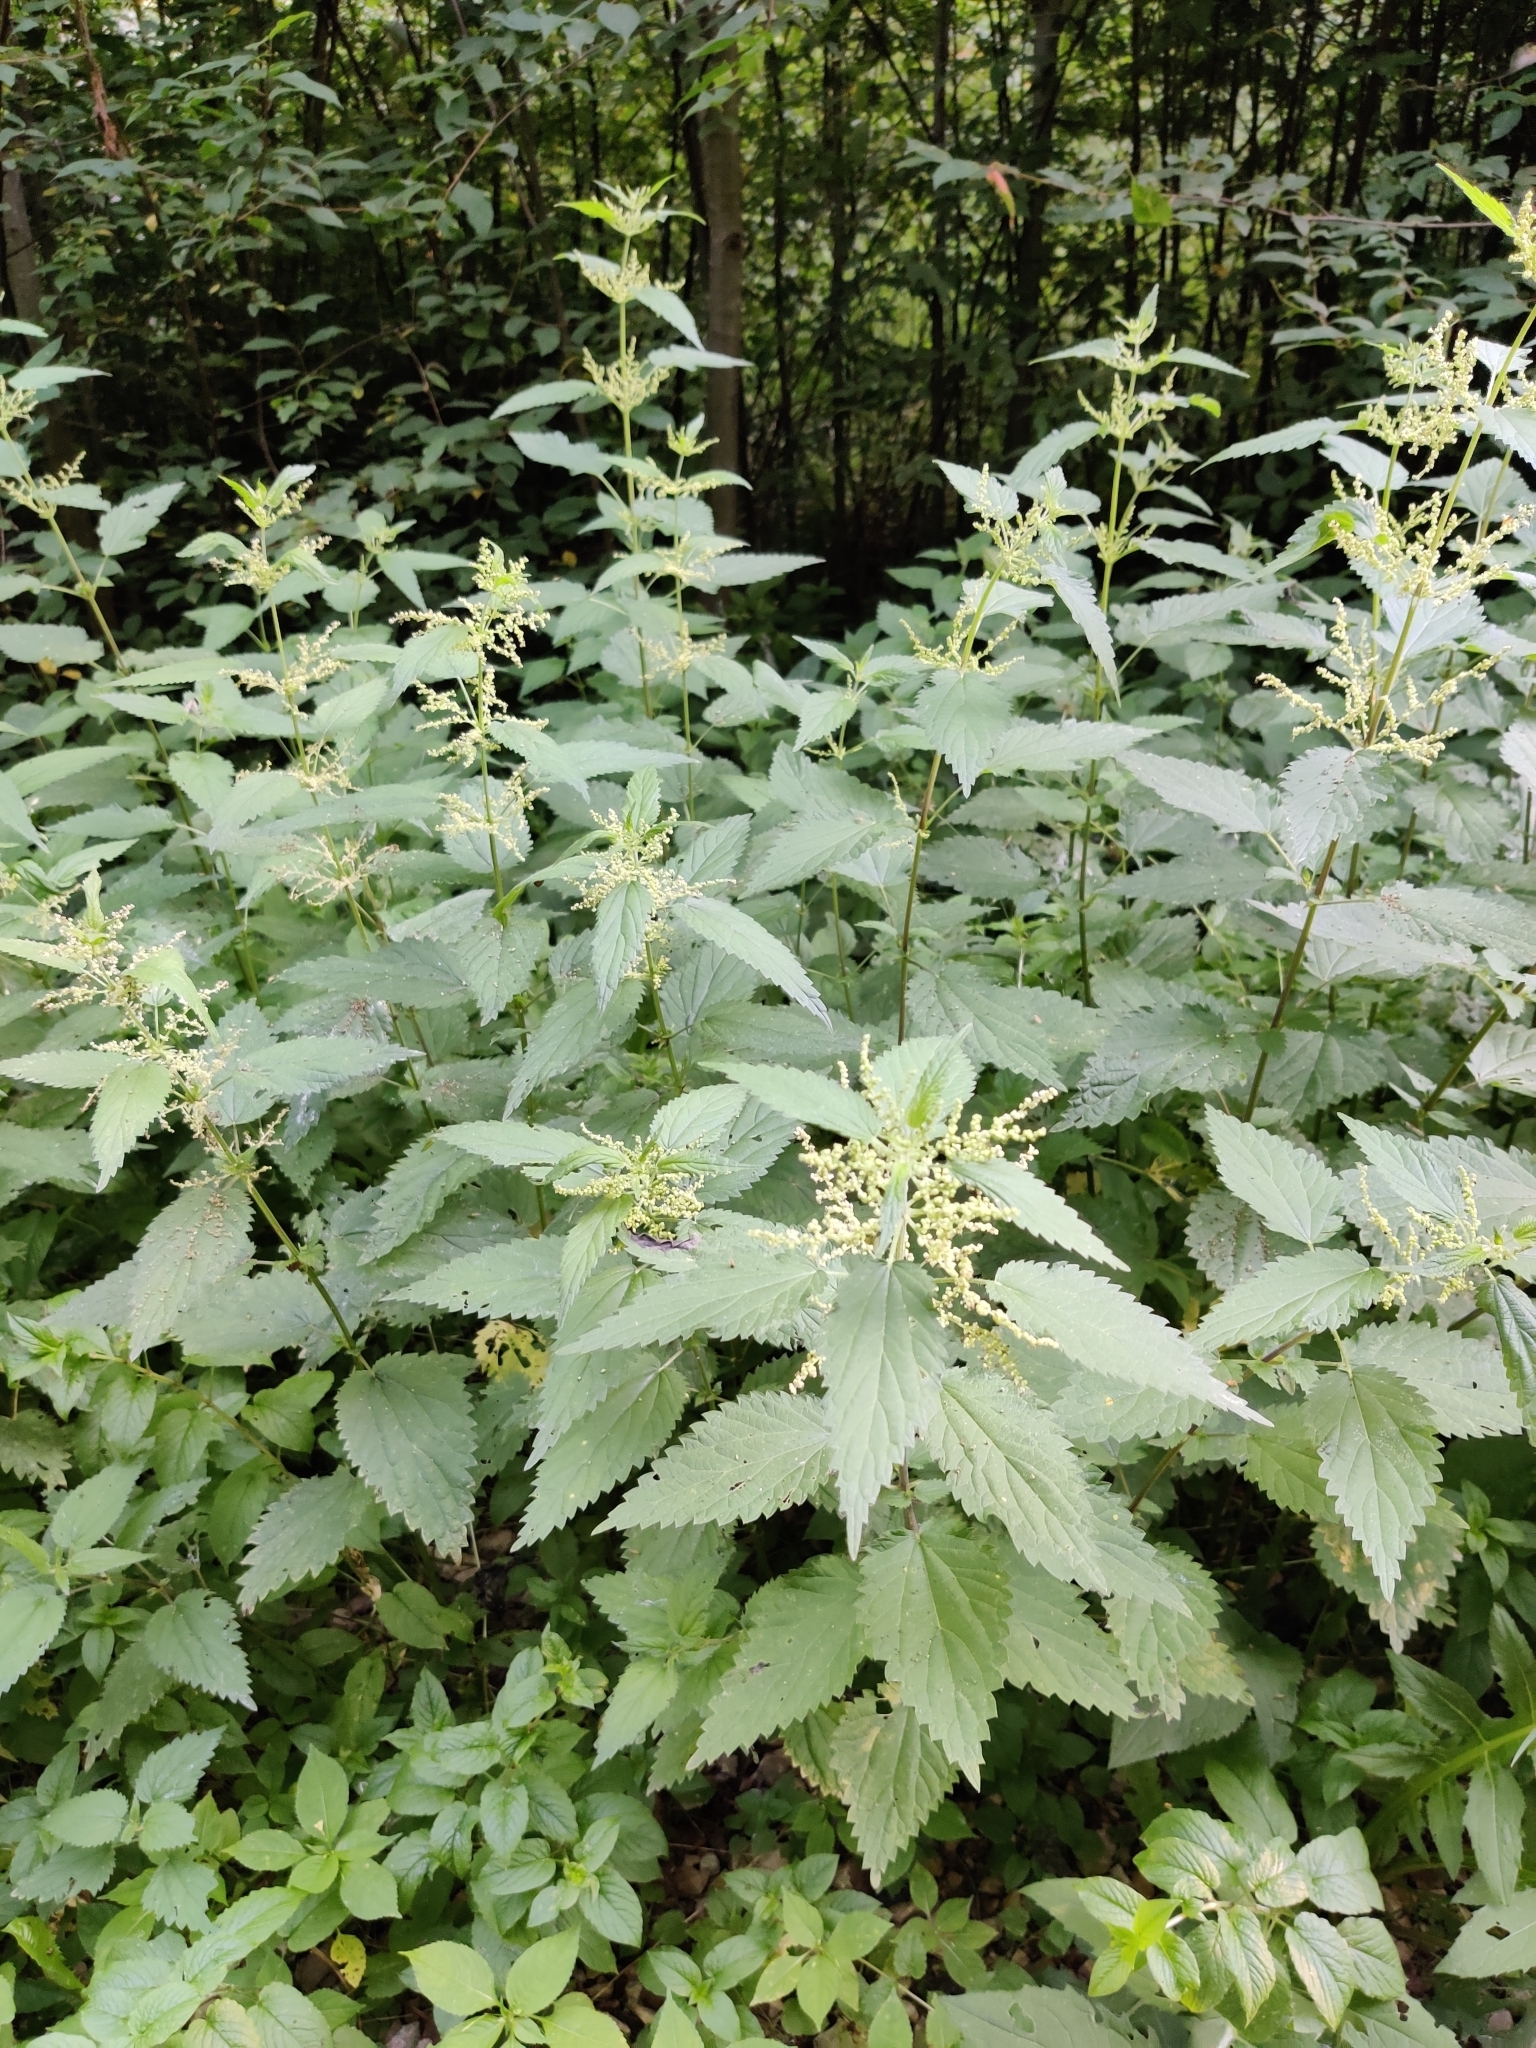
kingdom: Plantae
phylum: Tracheophyta
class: Magnoliopsida
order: Rosales
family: Urticaceae
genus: Urtica
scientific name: Urtica dioica
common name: Common nettle
